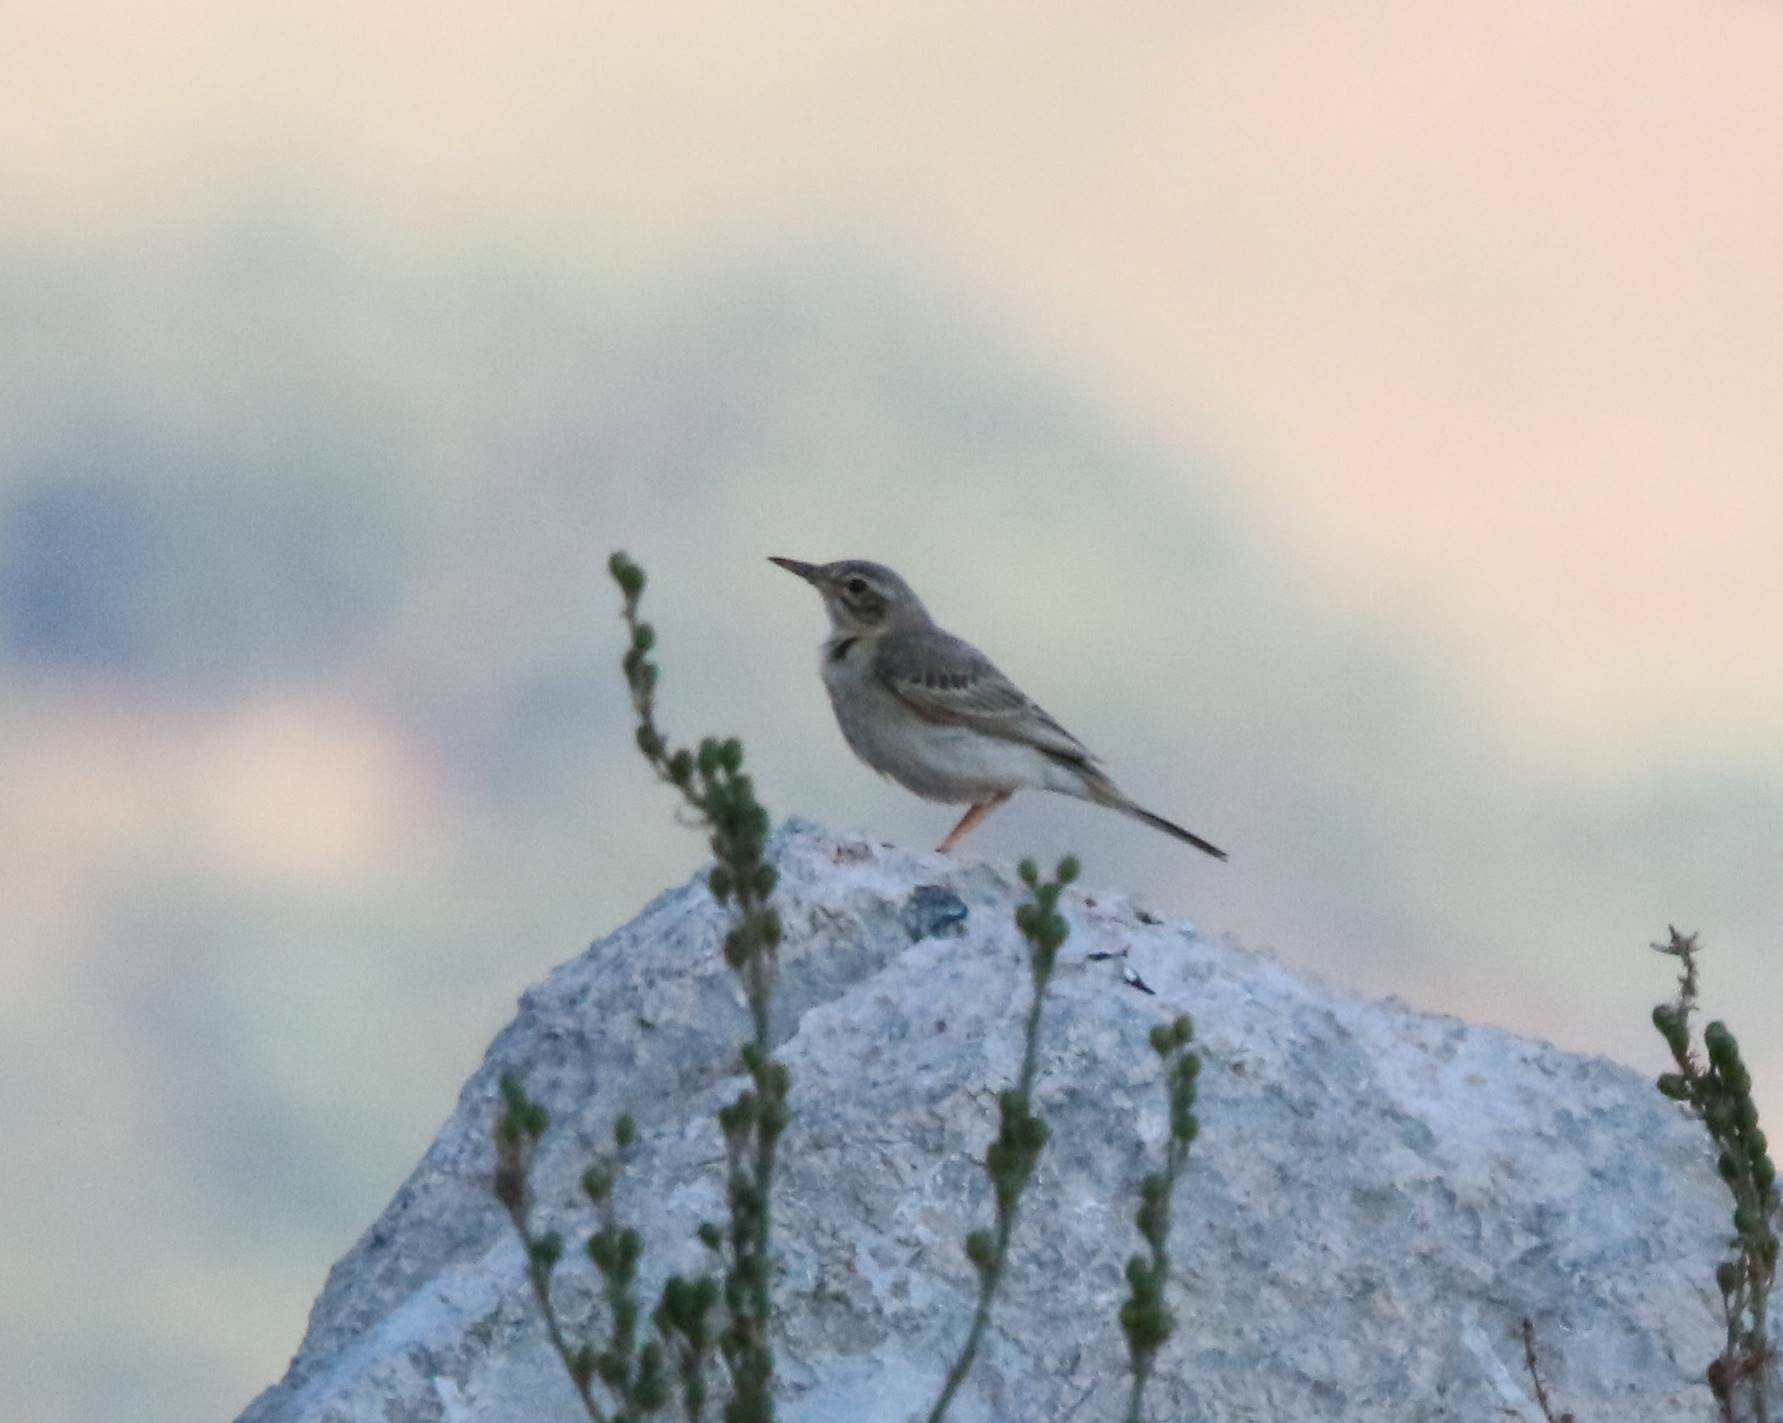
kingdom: Animalia
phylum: Chordata
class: Aves
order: Passeriformes
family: Motacillidae
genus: Anthus
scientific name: Anthus campestris
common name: Tawny pipit
